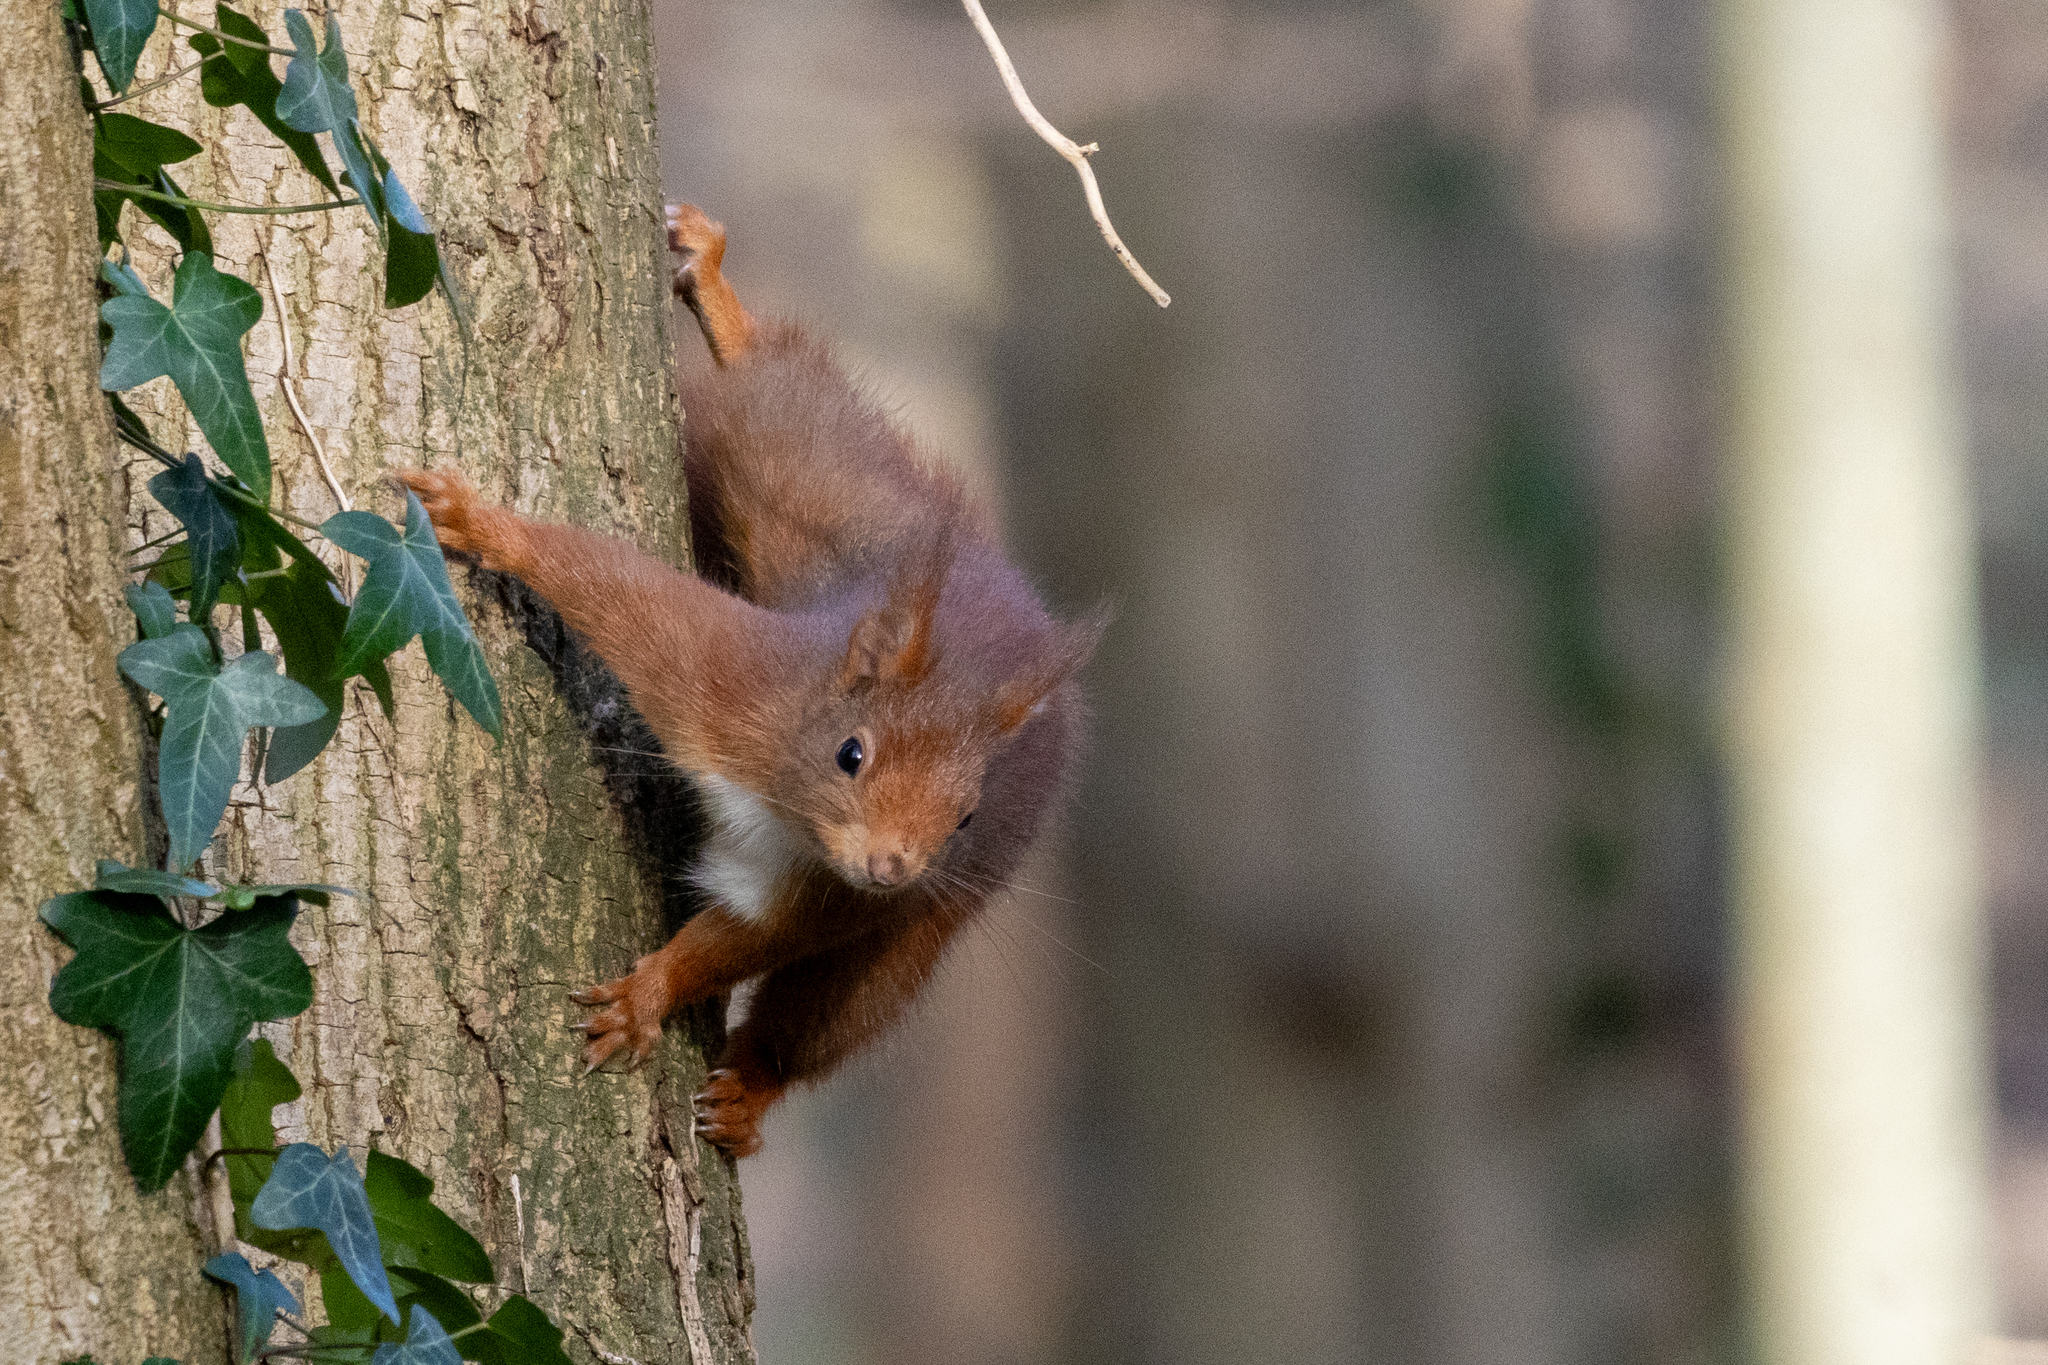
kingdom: Animalia
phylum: Chordata
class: Mammalia
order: Rodentia
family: Sciuridae
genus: Sciurus
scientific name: Sciurus vulgaris
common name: Eurasian red squirrel
